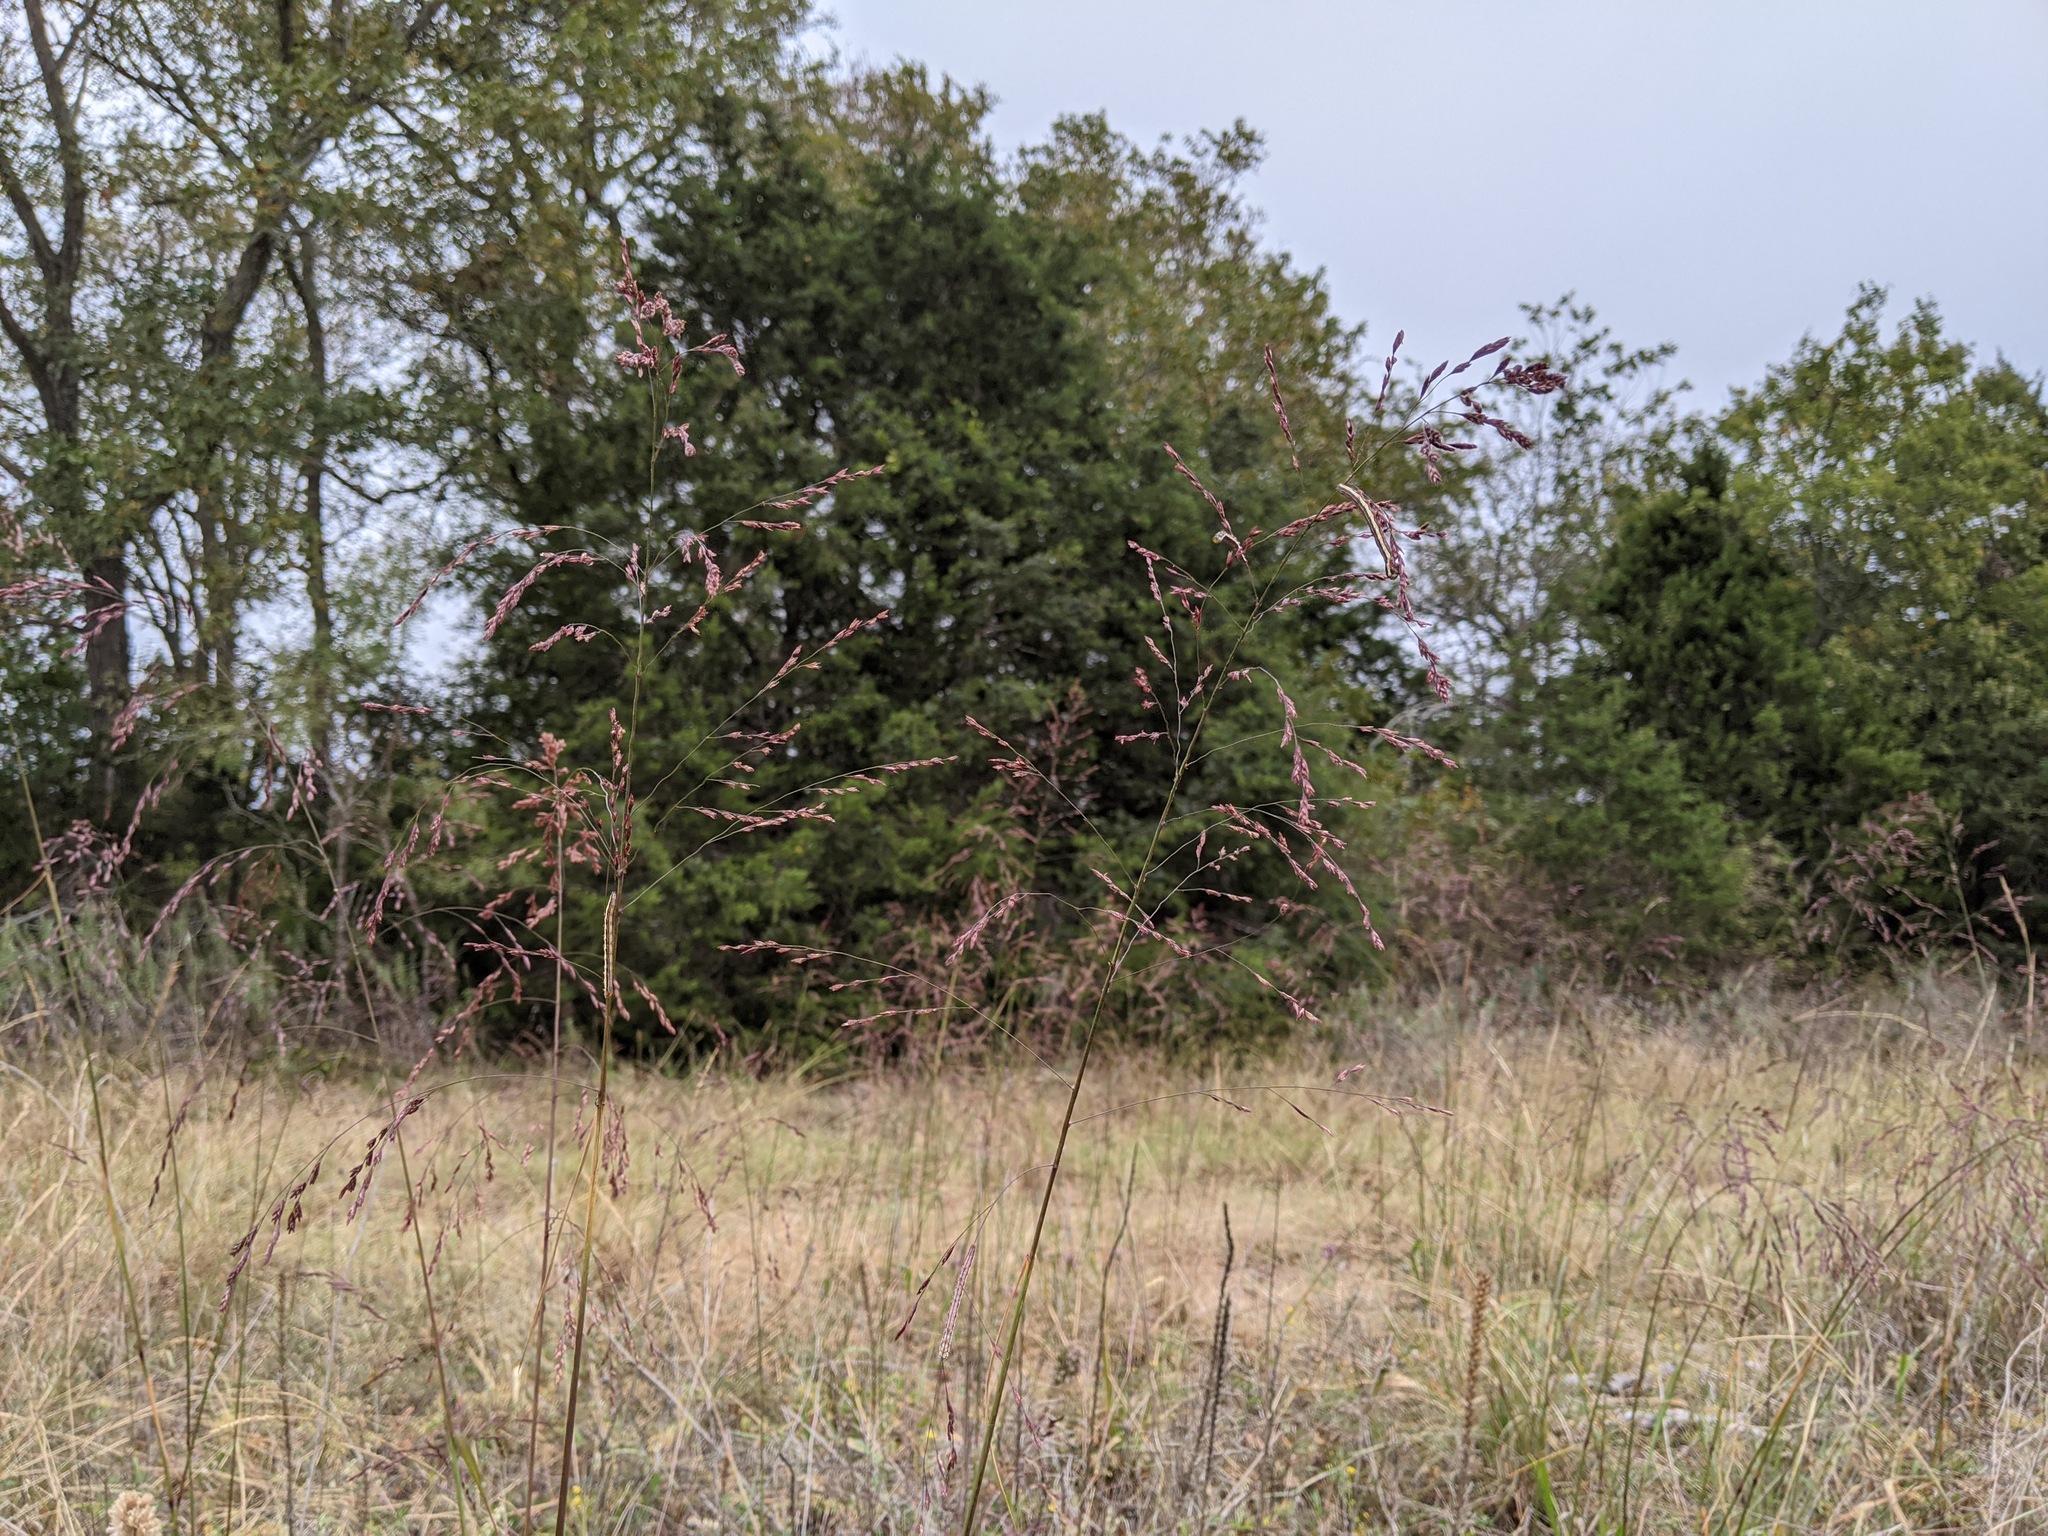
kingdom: Plantae
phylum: Tracheophyta
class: Liliopsida
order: Poales
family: Poaceae
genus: Tridens
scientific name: Tridens flavus
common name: Purpletop
